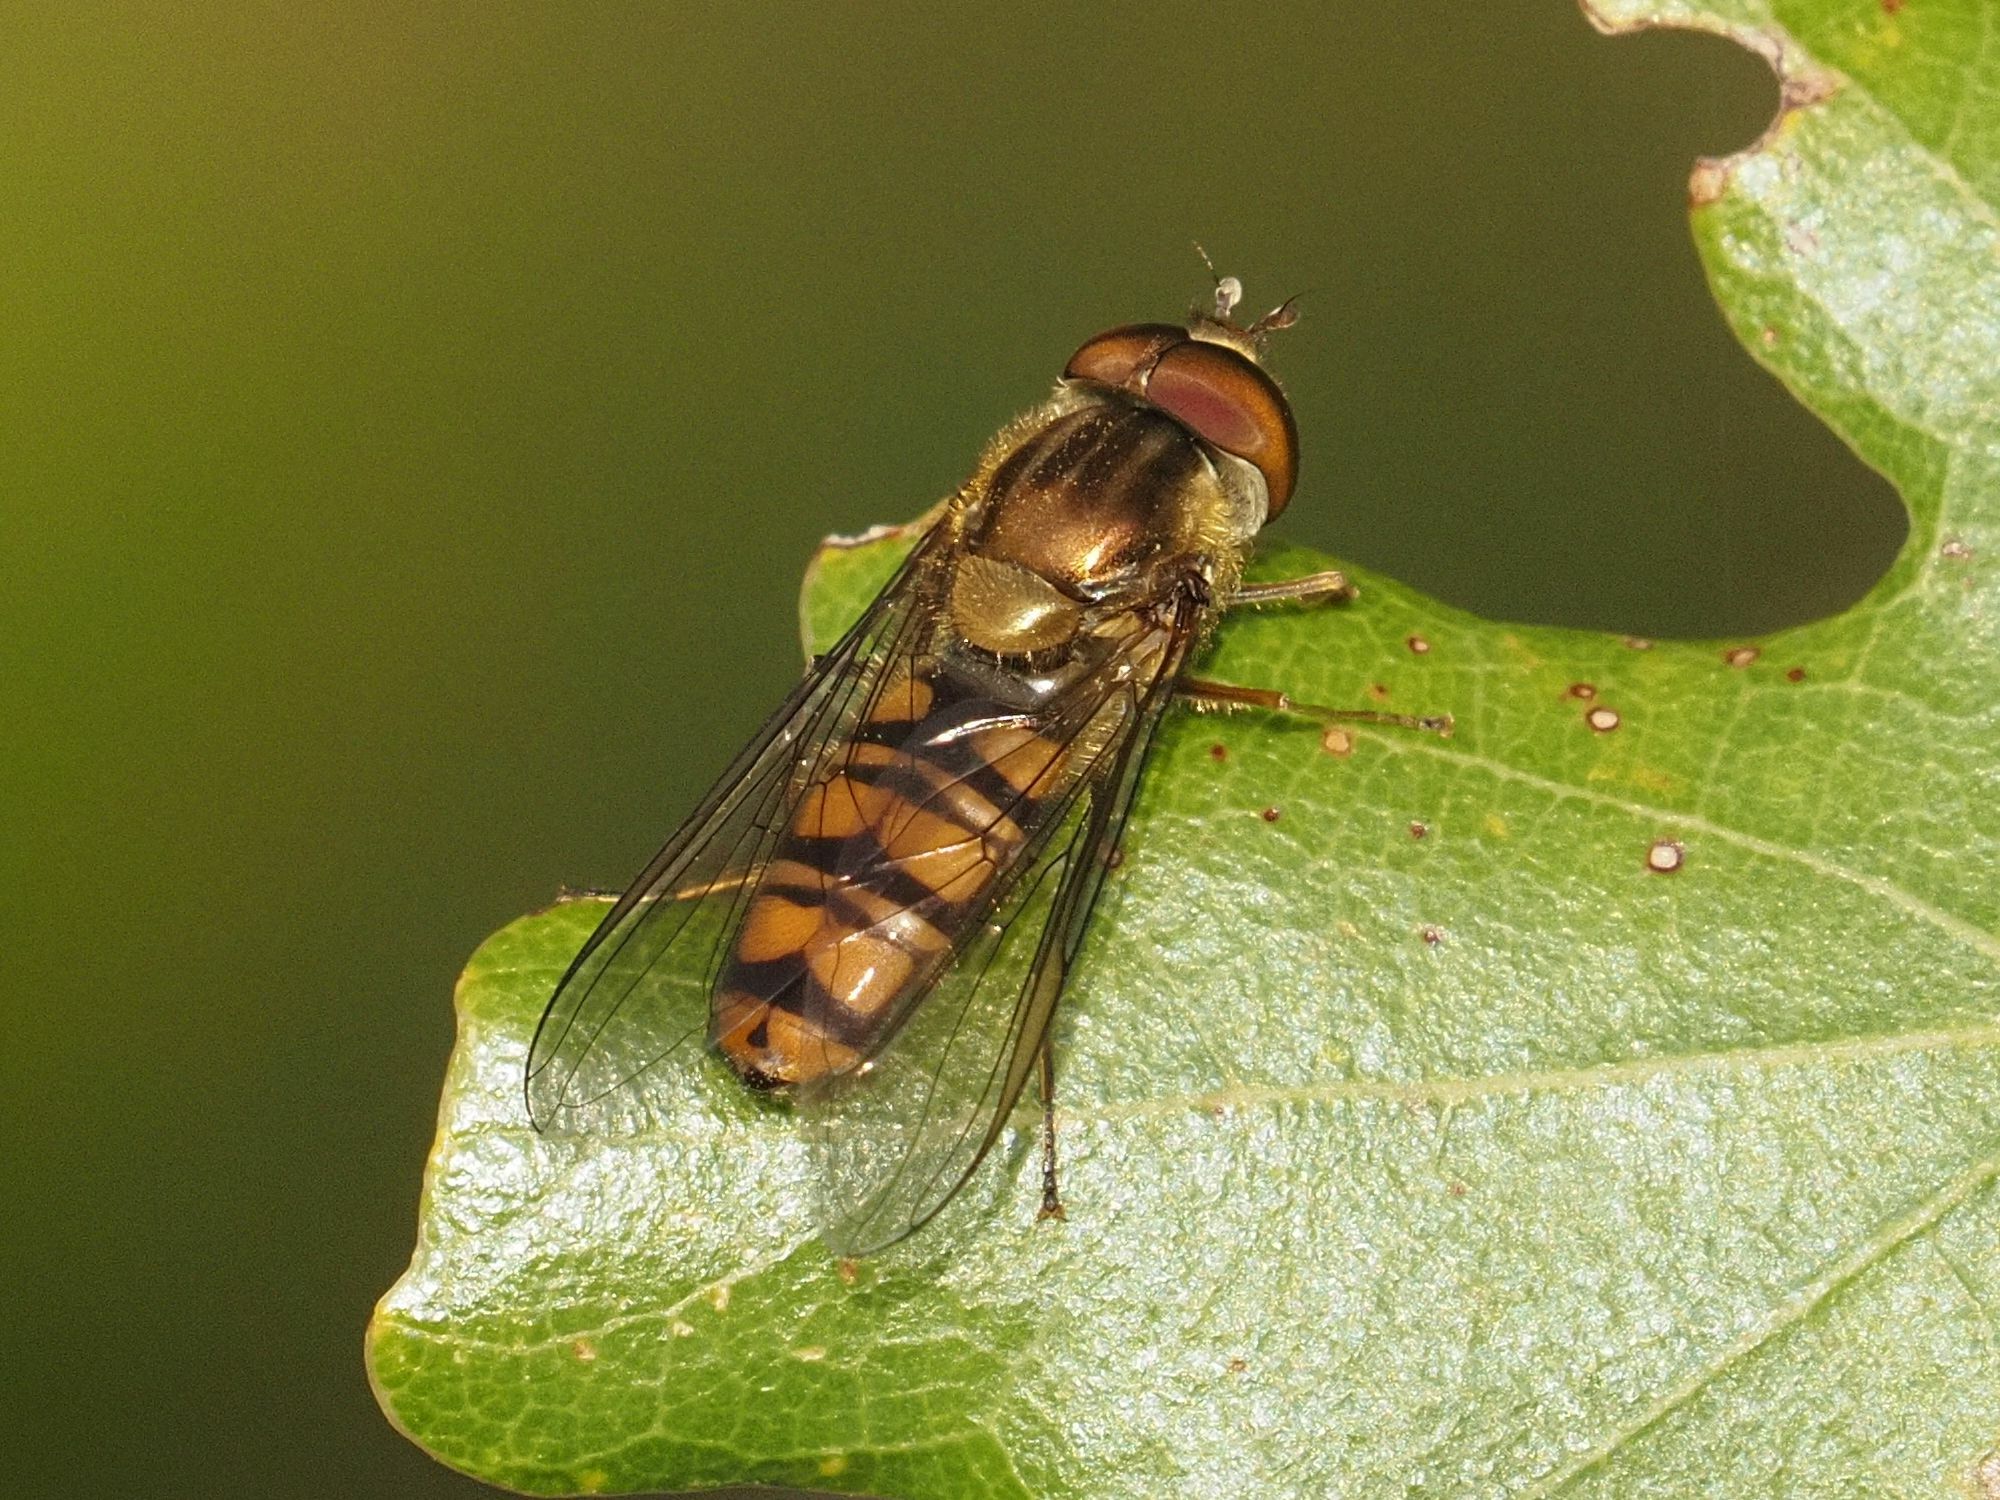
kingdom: Animalia
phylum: Arthropoda
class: Insecta
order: Diptera
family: Syrphidae
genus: Episyrphus
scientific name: Episyrphus balteatus
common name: Marmalade hoverfly
